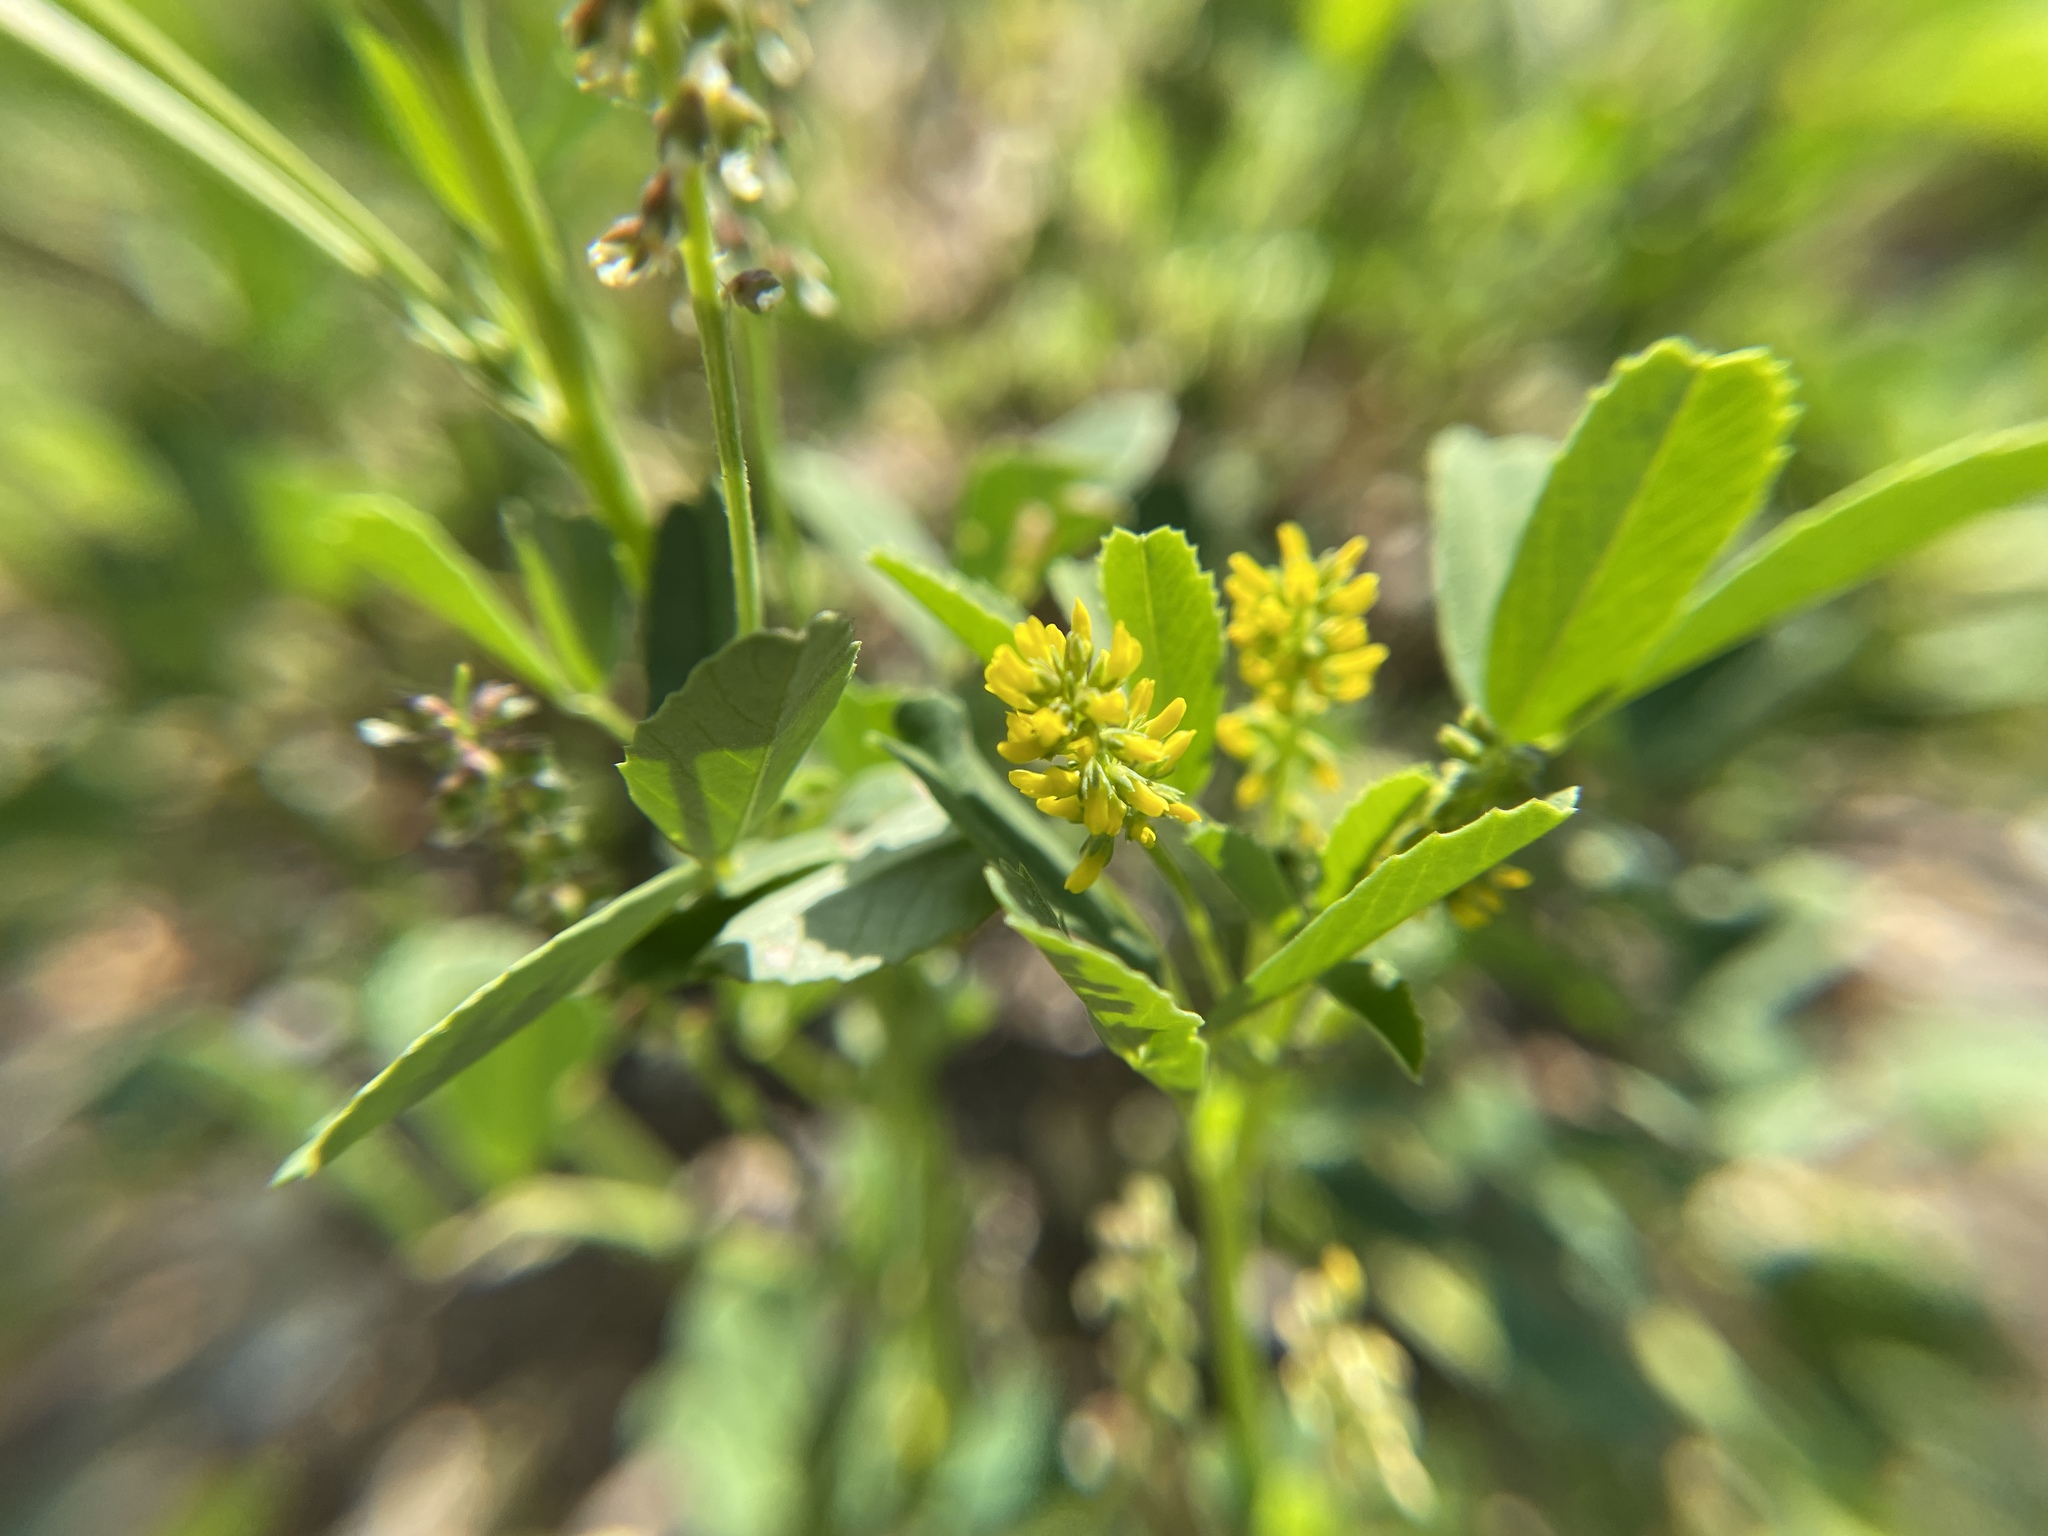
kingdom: Plantae
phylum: Tracheophyta
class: Magnoliopsida
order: Fabales
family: Fabaceae
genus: Melilotus
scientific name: Melilotus indicus
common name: Small melilot
